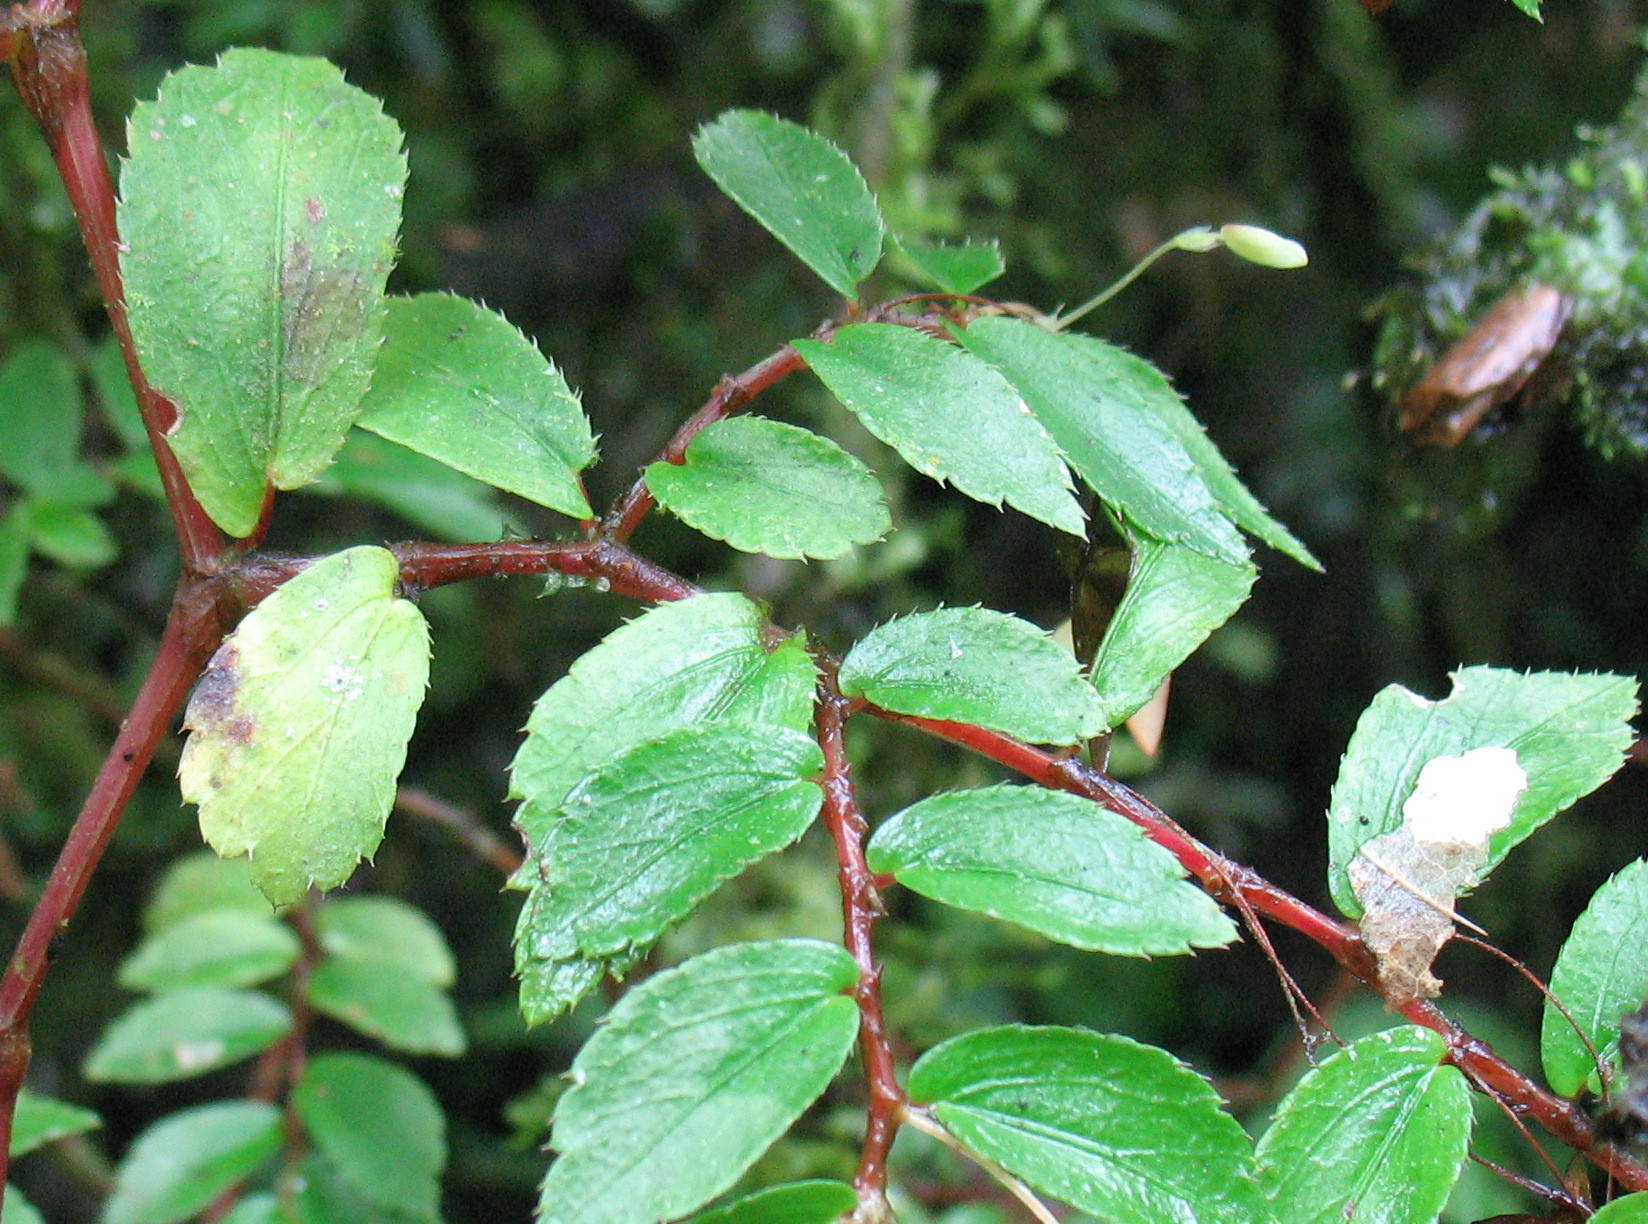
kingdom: Plantae
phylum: Tracheophyta
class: Magnoliopsida
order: Cucurbitales
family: Begoniaceae
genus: Begonia
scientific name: Begonia foliosa
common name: Fern begonia
